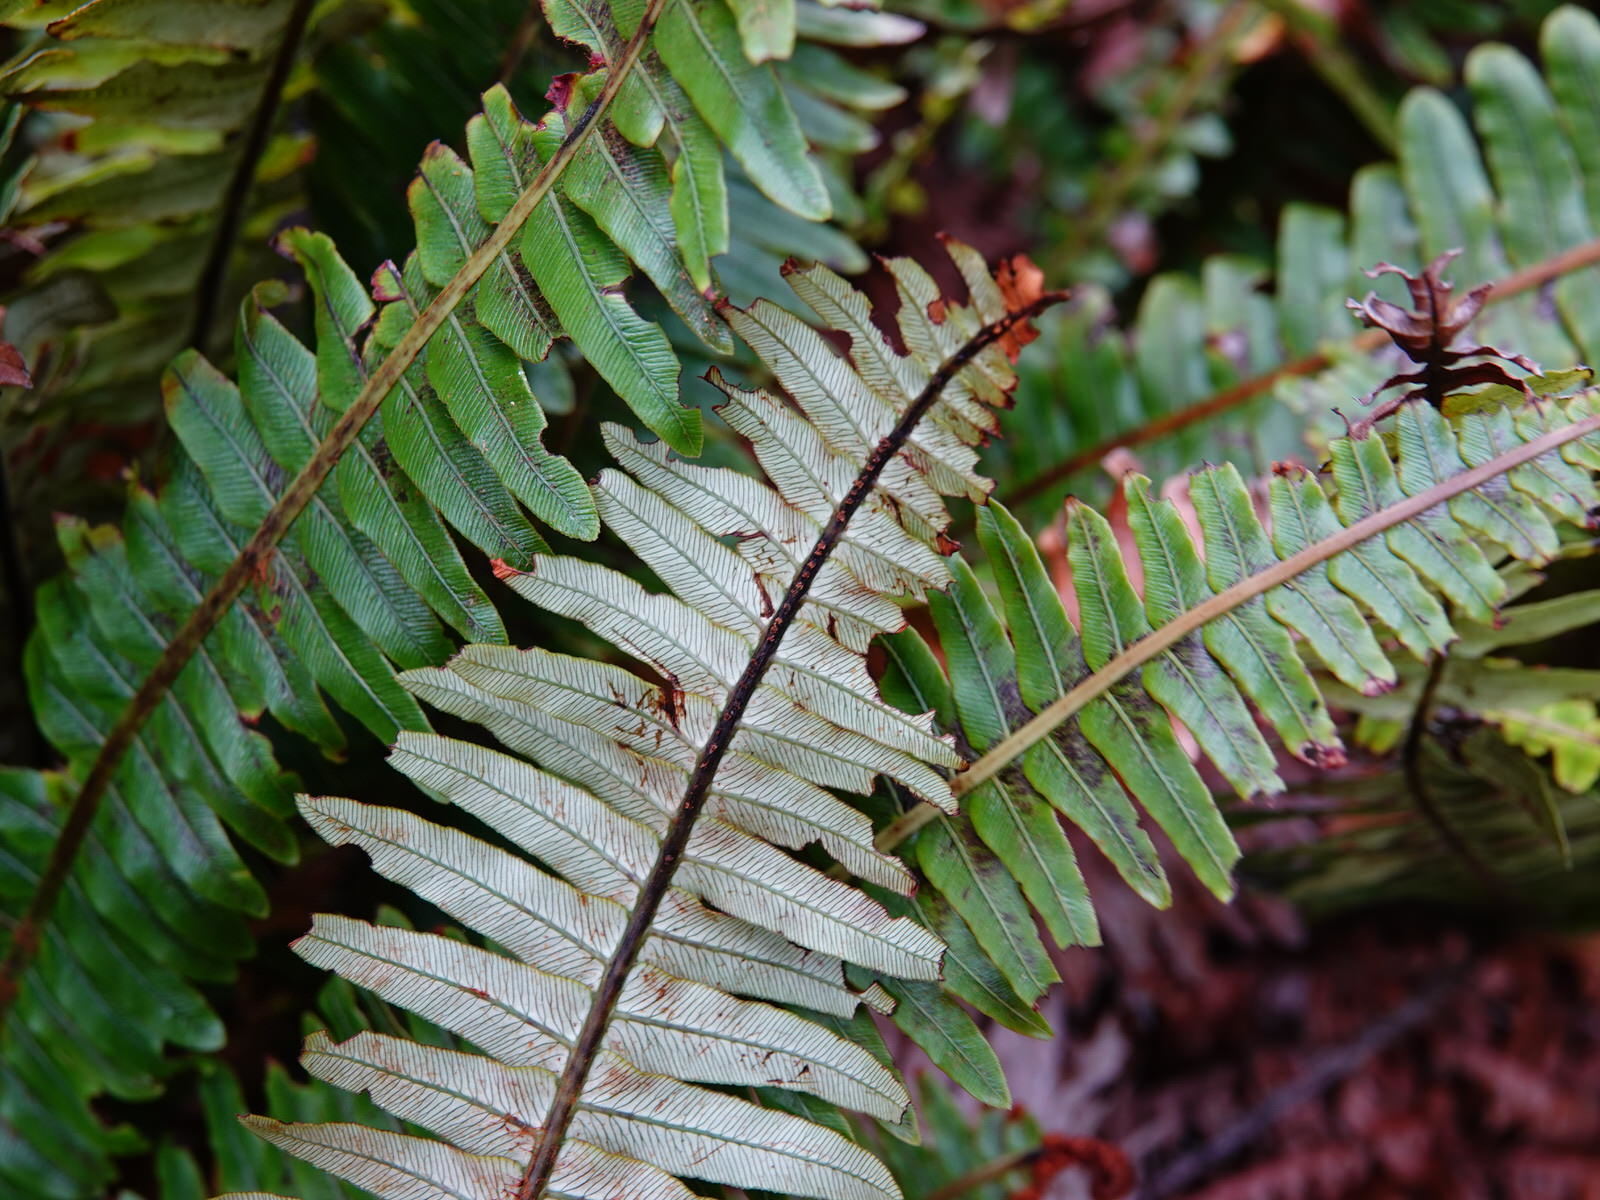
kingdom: Plantae
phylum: Tracheophyta
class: Polypodiopsida
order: Polypodiales
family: Blechnaceae
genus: Lomaria
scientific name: Lomaria discolor
